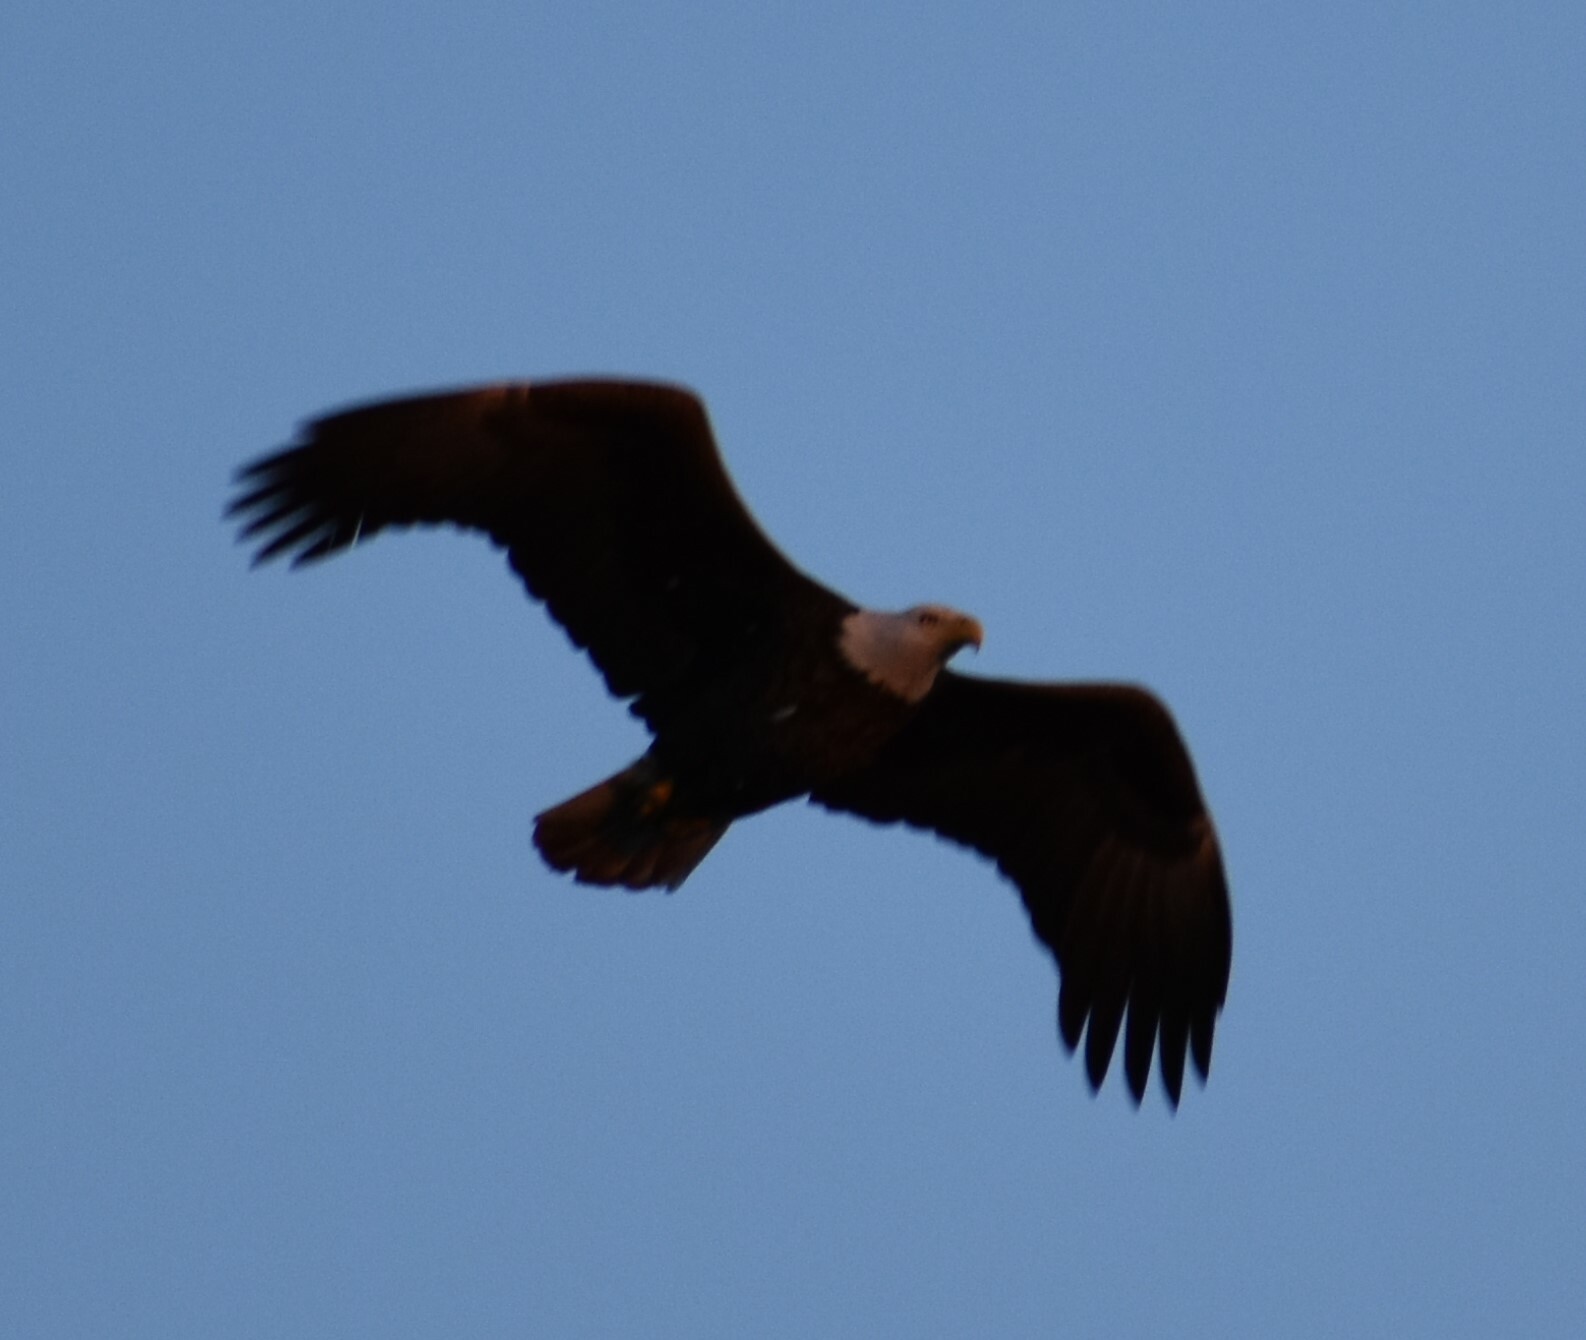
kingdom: Animalia
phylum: Chordata
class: Aves
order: Accipitriformes
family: Accipitridae
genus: Haliaeetus
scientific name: Haliaeetus leucocephalus
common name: Bald eagle
